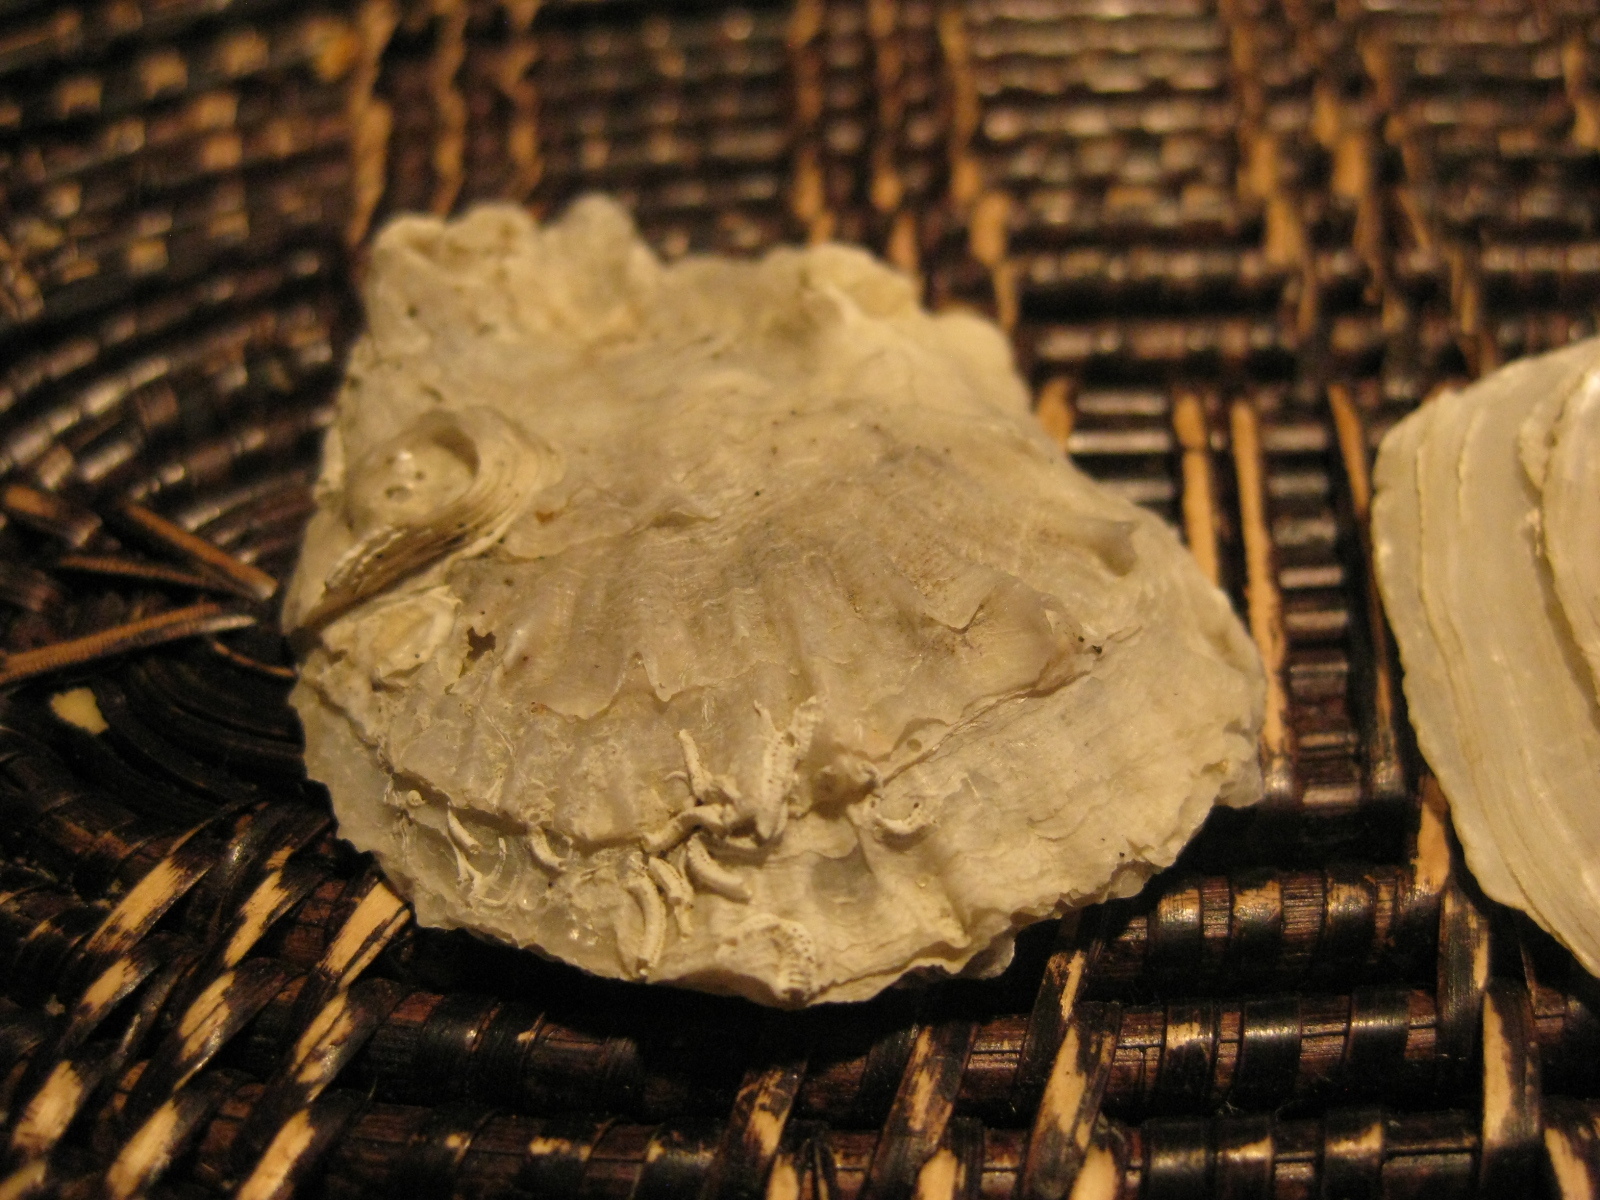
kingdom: Animalia
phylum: Mollusca
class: Bivalvia
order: Ostreida
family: Ostreidae
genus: Ostrea
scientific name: Ostrea chilensis
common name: Chilean oyster
